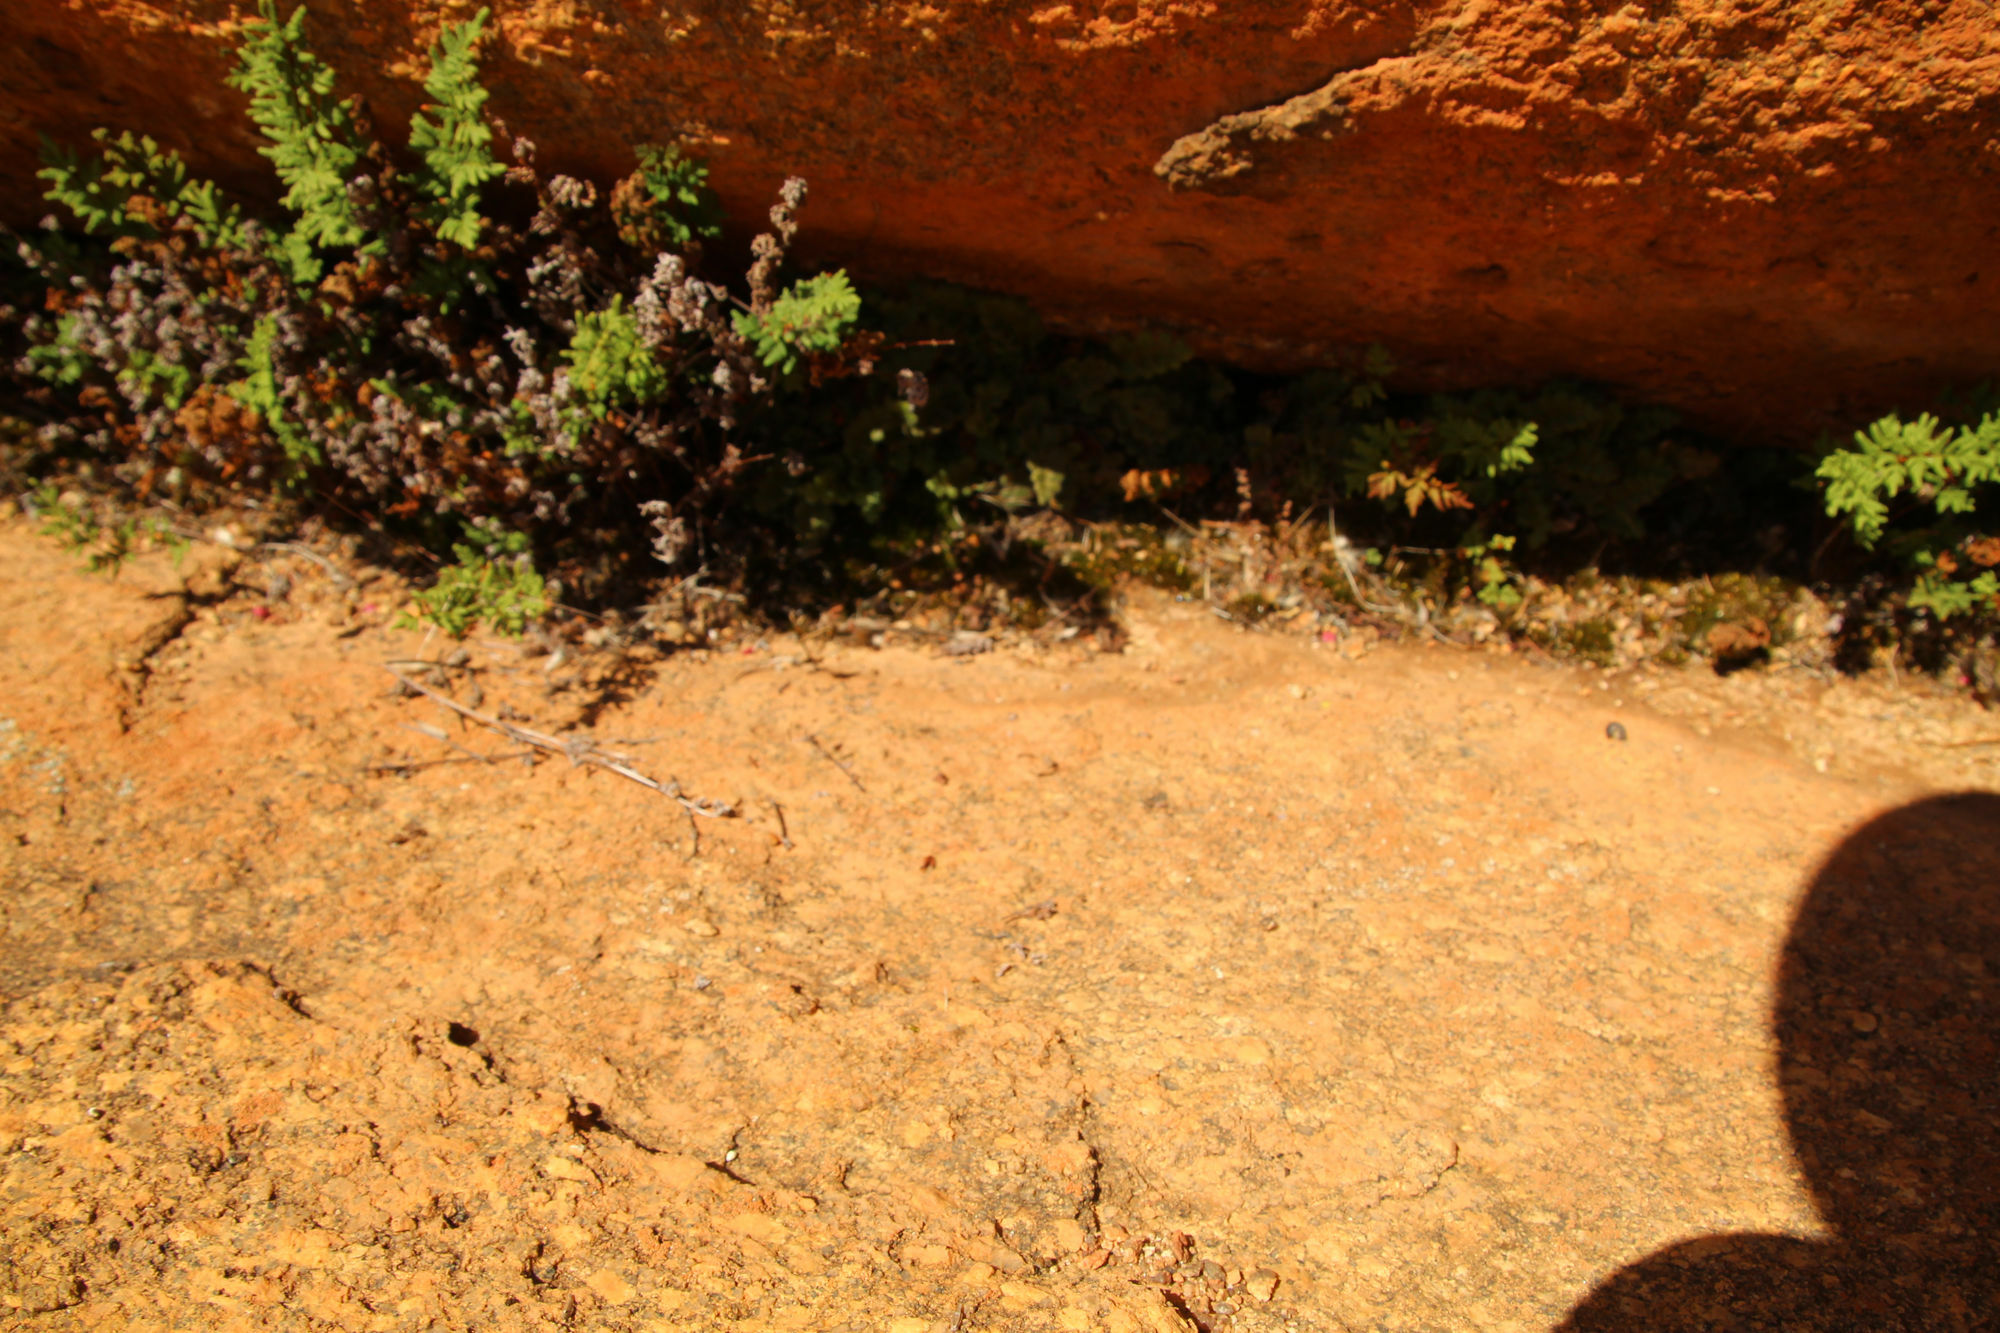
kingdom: Plantae
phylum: Tracheophyta
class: Polypodiopsida
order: Polypodiales
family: Pteridaceae
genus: Cheilanthes
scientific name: Cheilanthes sieberi
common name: Mulga fern
